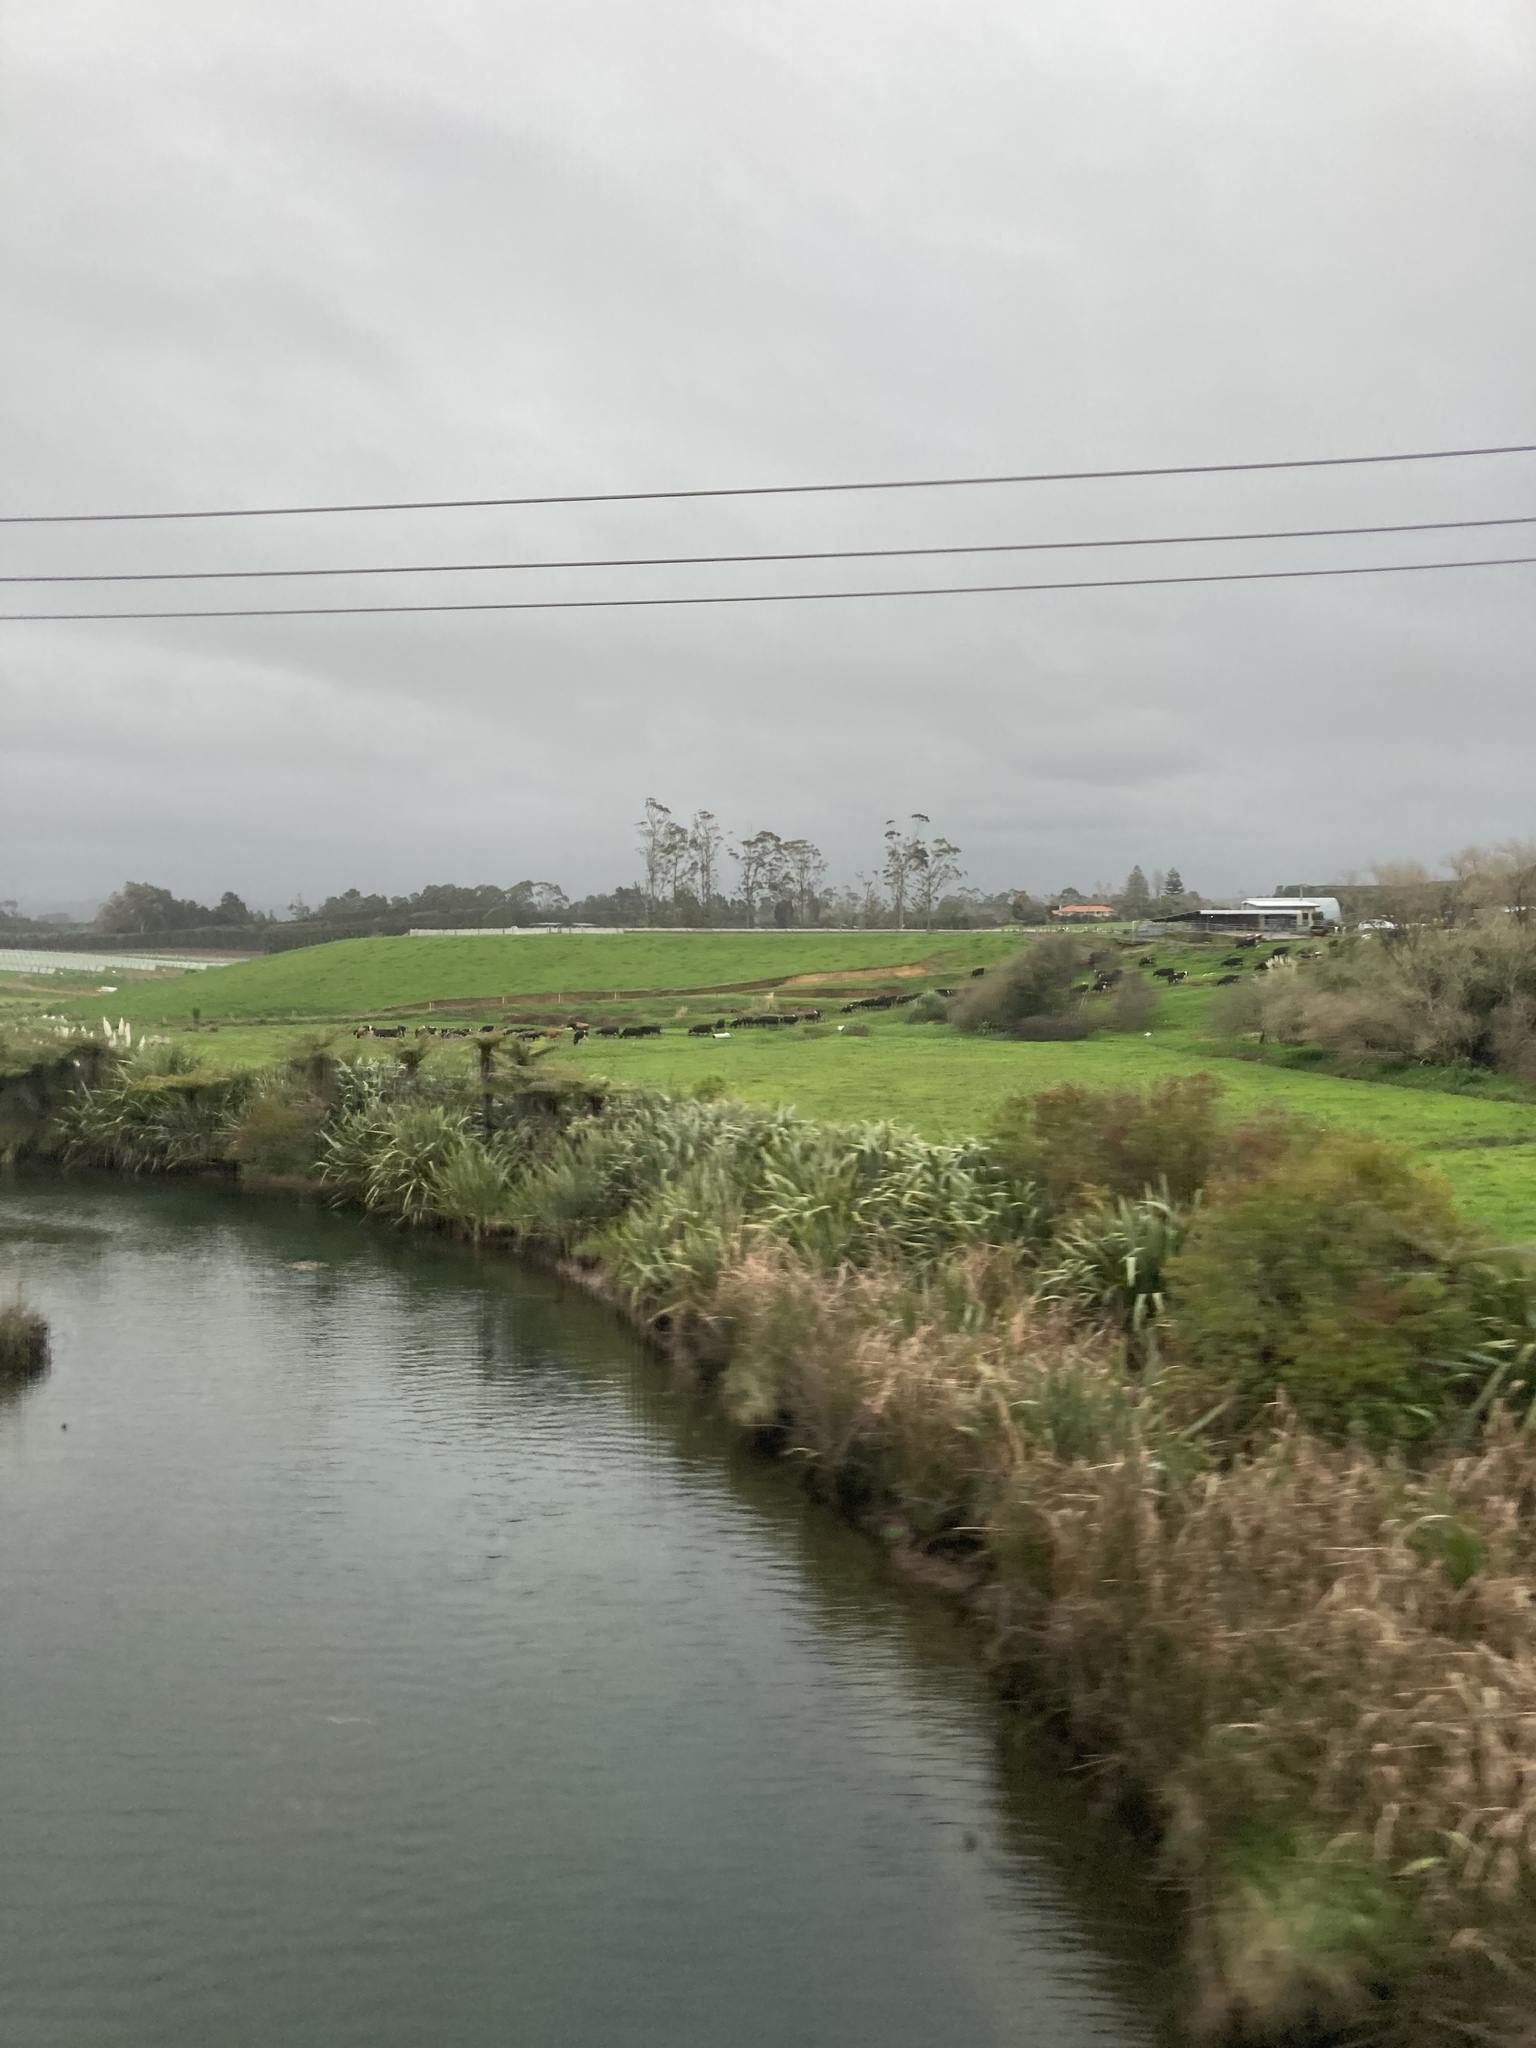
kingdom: Plantae
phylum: Tracheophyta
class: Liliopsida
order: Asparagales
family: Asphodelaceae
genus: Phormium
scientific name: Phormium tenax
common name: New zealand flax
